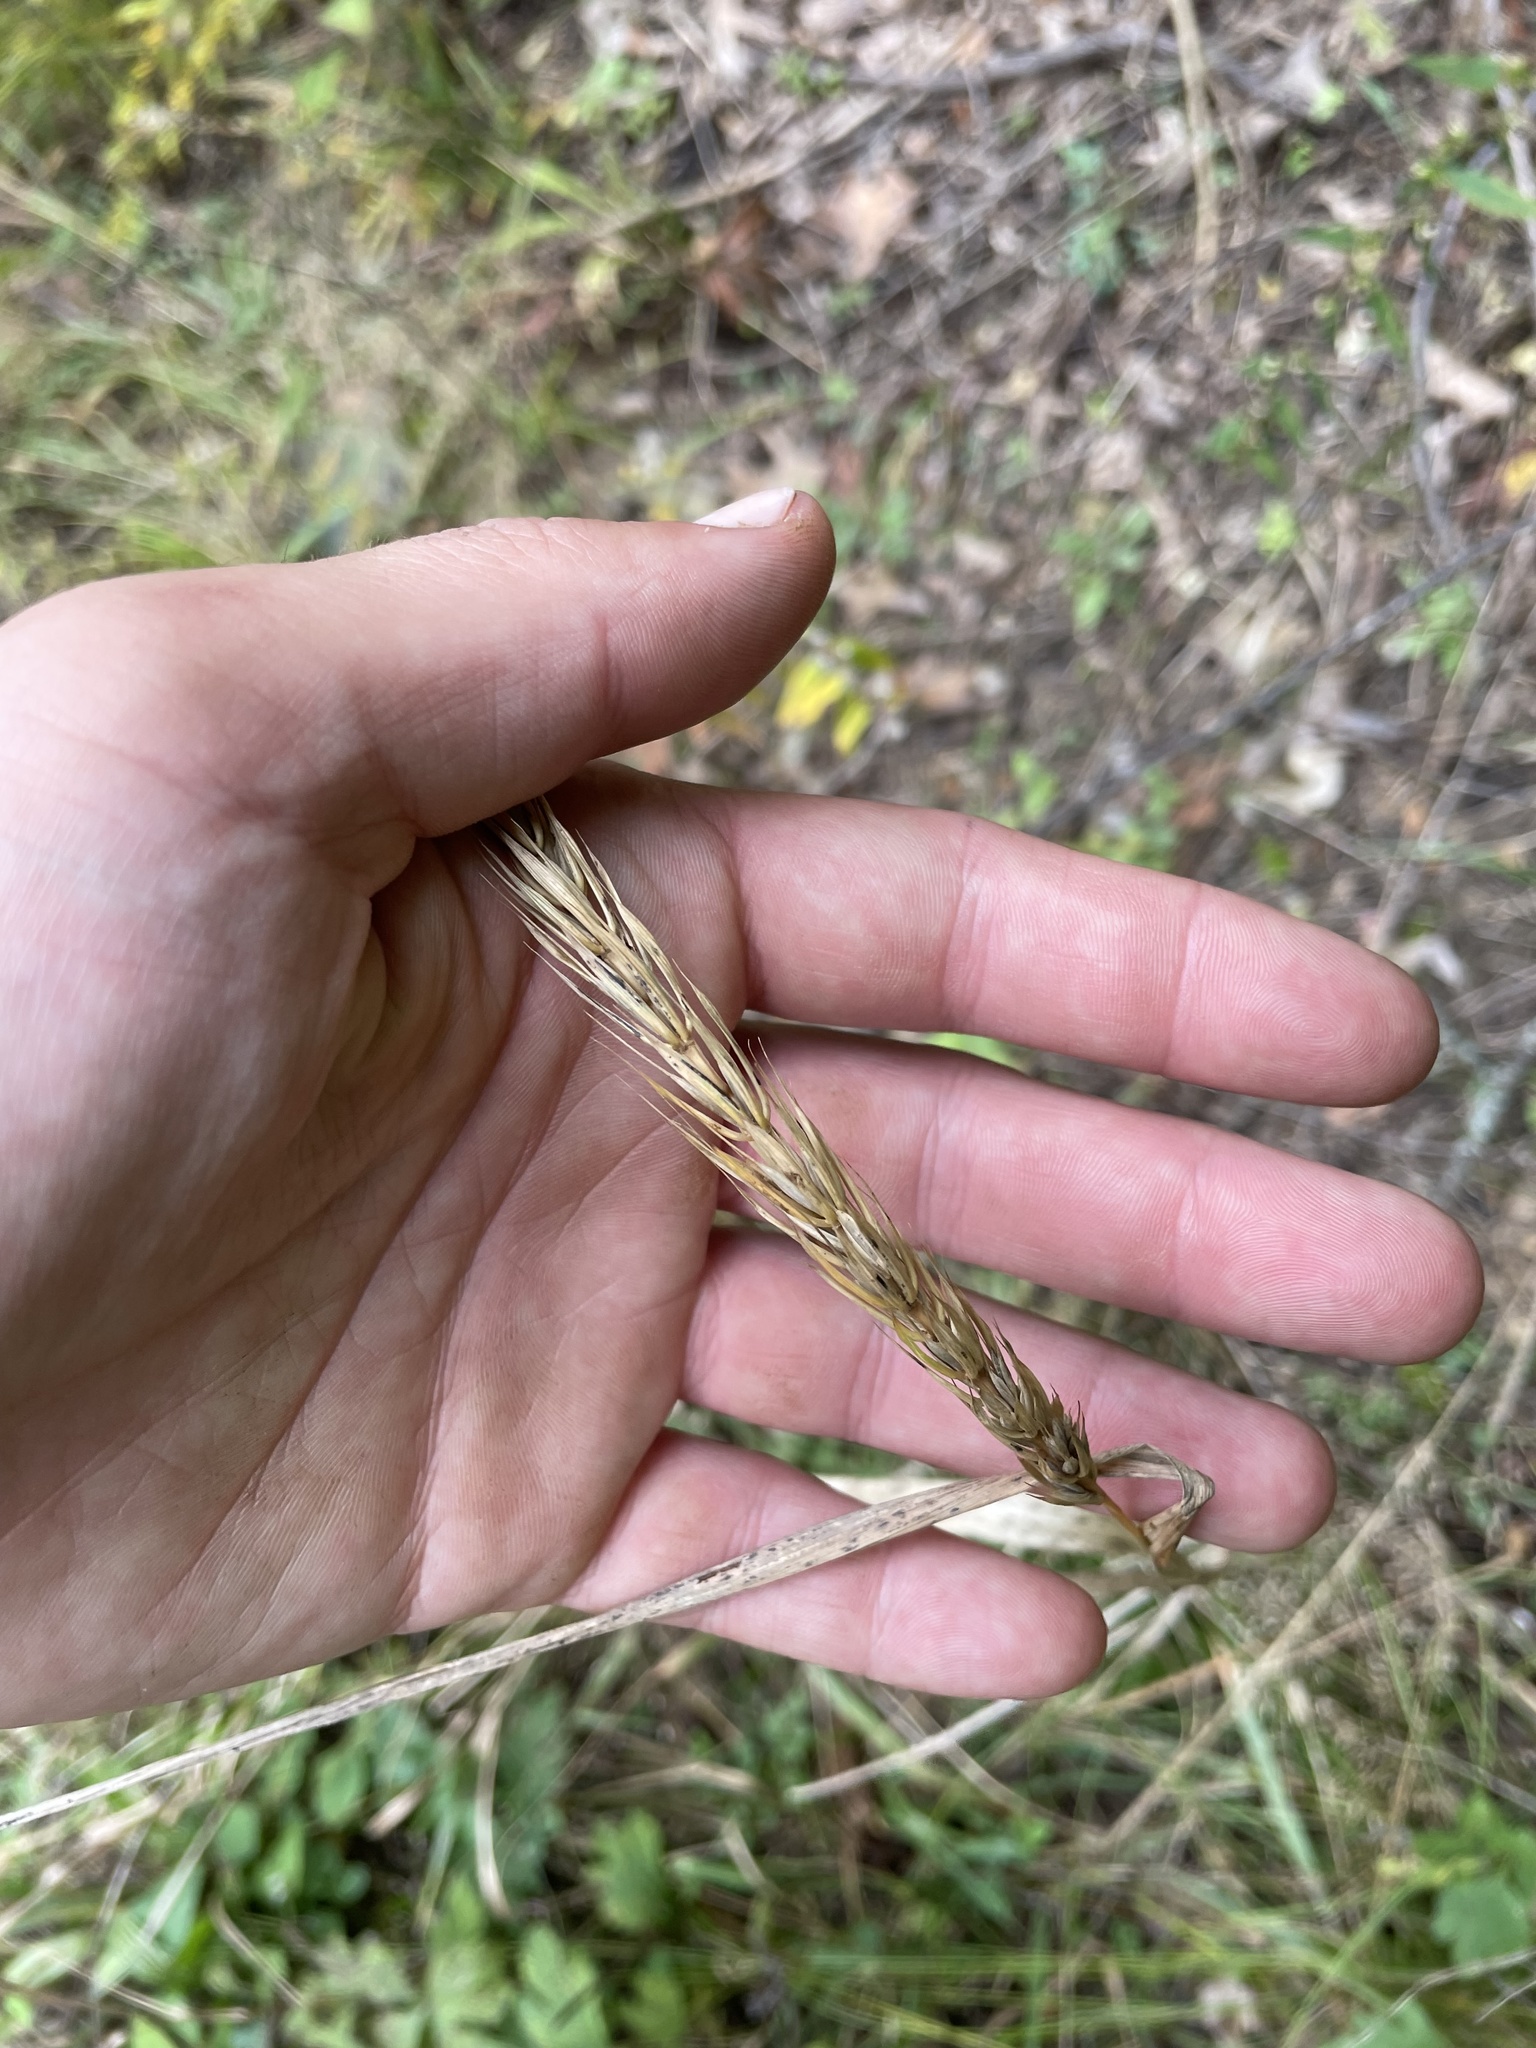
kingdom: Plantae
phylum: Tracheophyta
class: Liliopsida
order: Poales
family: Poaceae
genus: Elymus
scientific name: Elymus virginicus
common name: Common eastern wildrye
